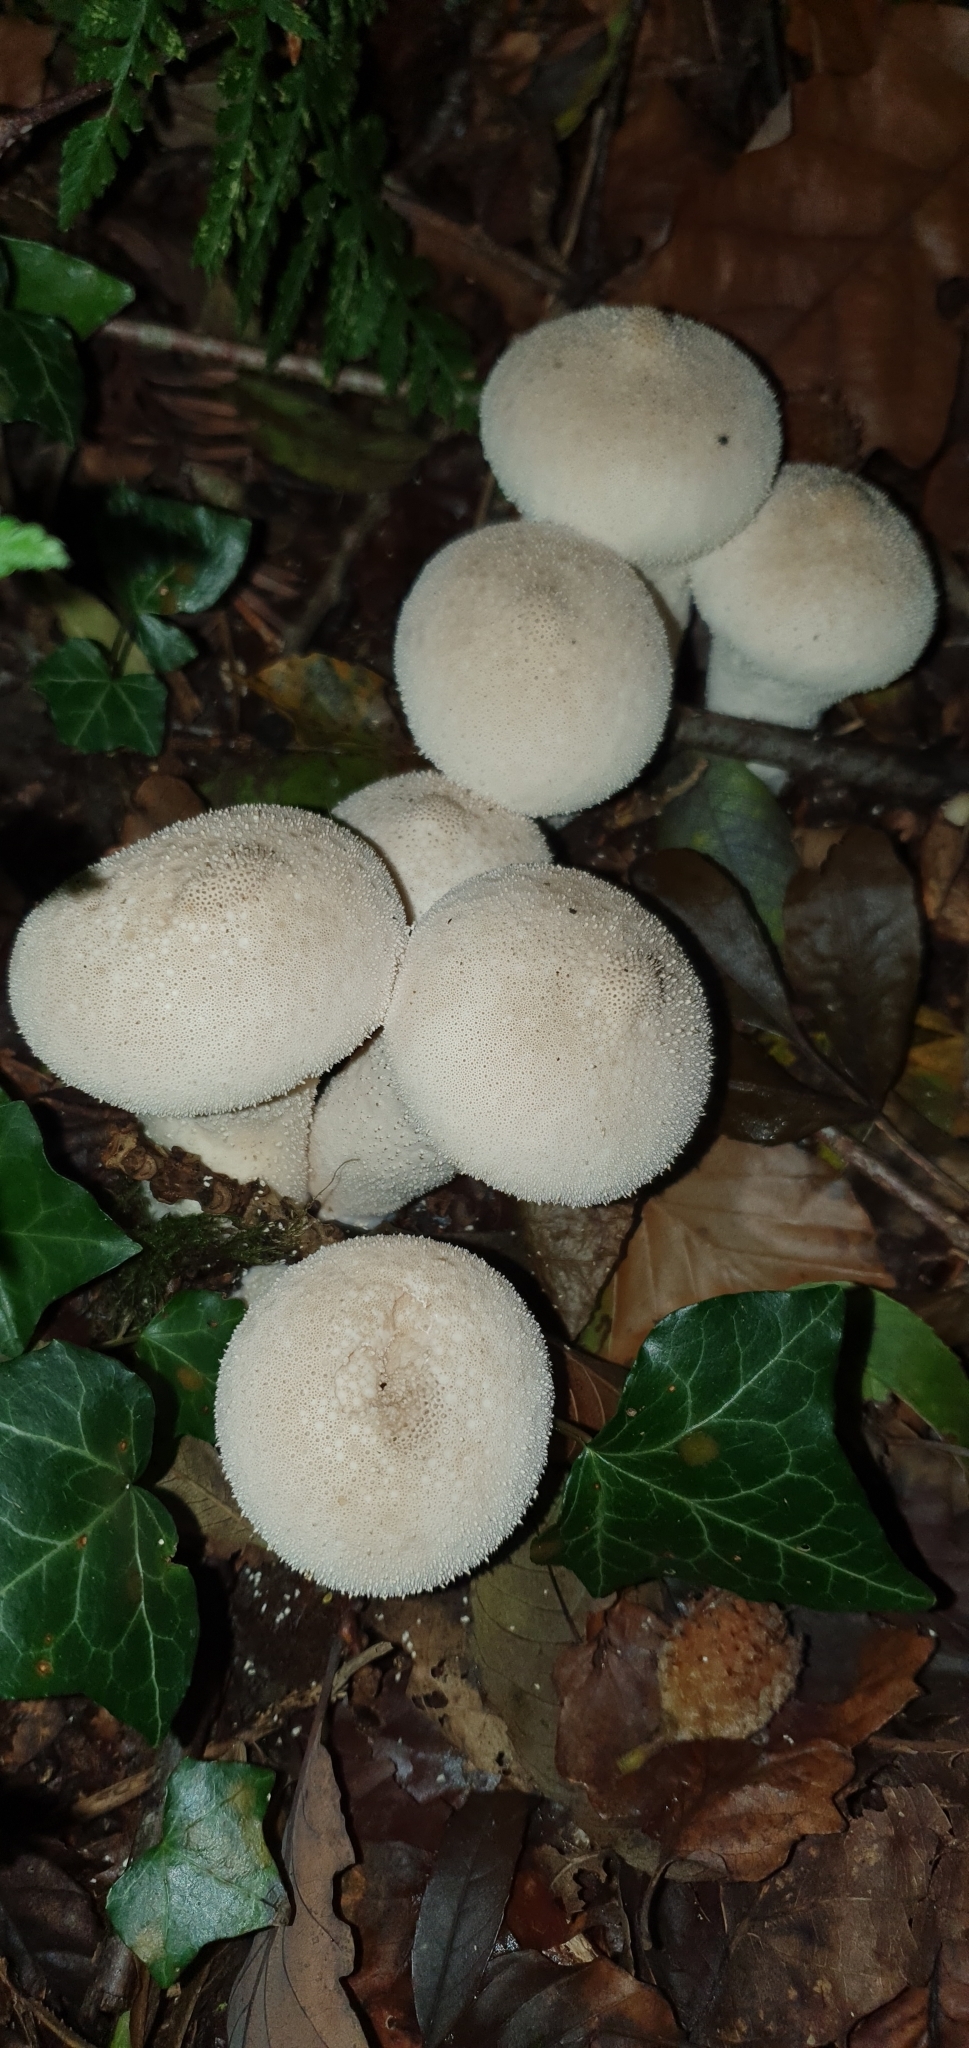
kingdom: Fungi
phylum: Basidiomycota
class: Agaricomycetes
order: Agaricales
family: Lycoperdaceae
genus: Lycoperdon
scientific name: Lycoperdon perlatum
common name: Common puffball
